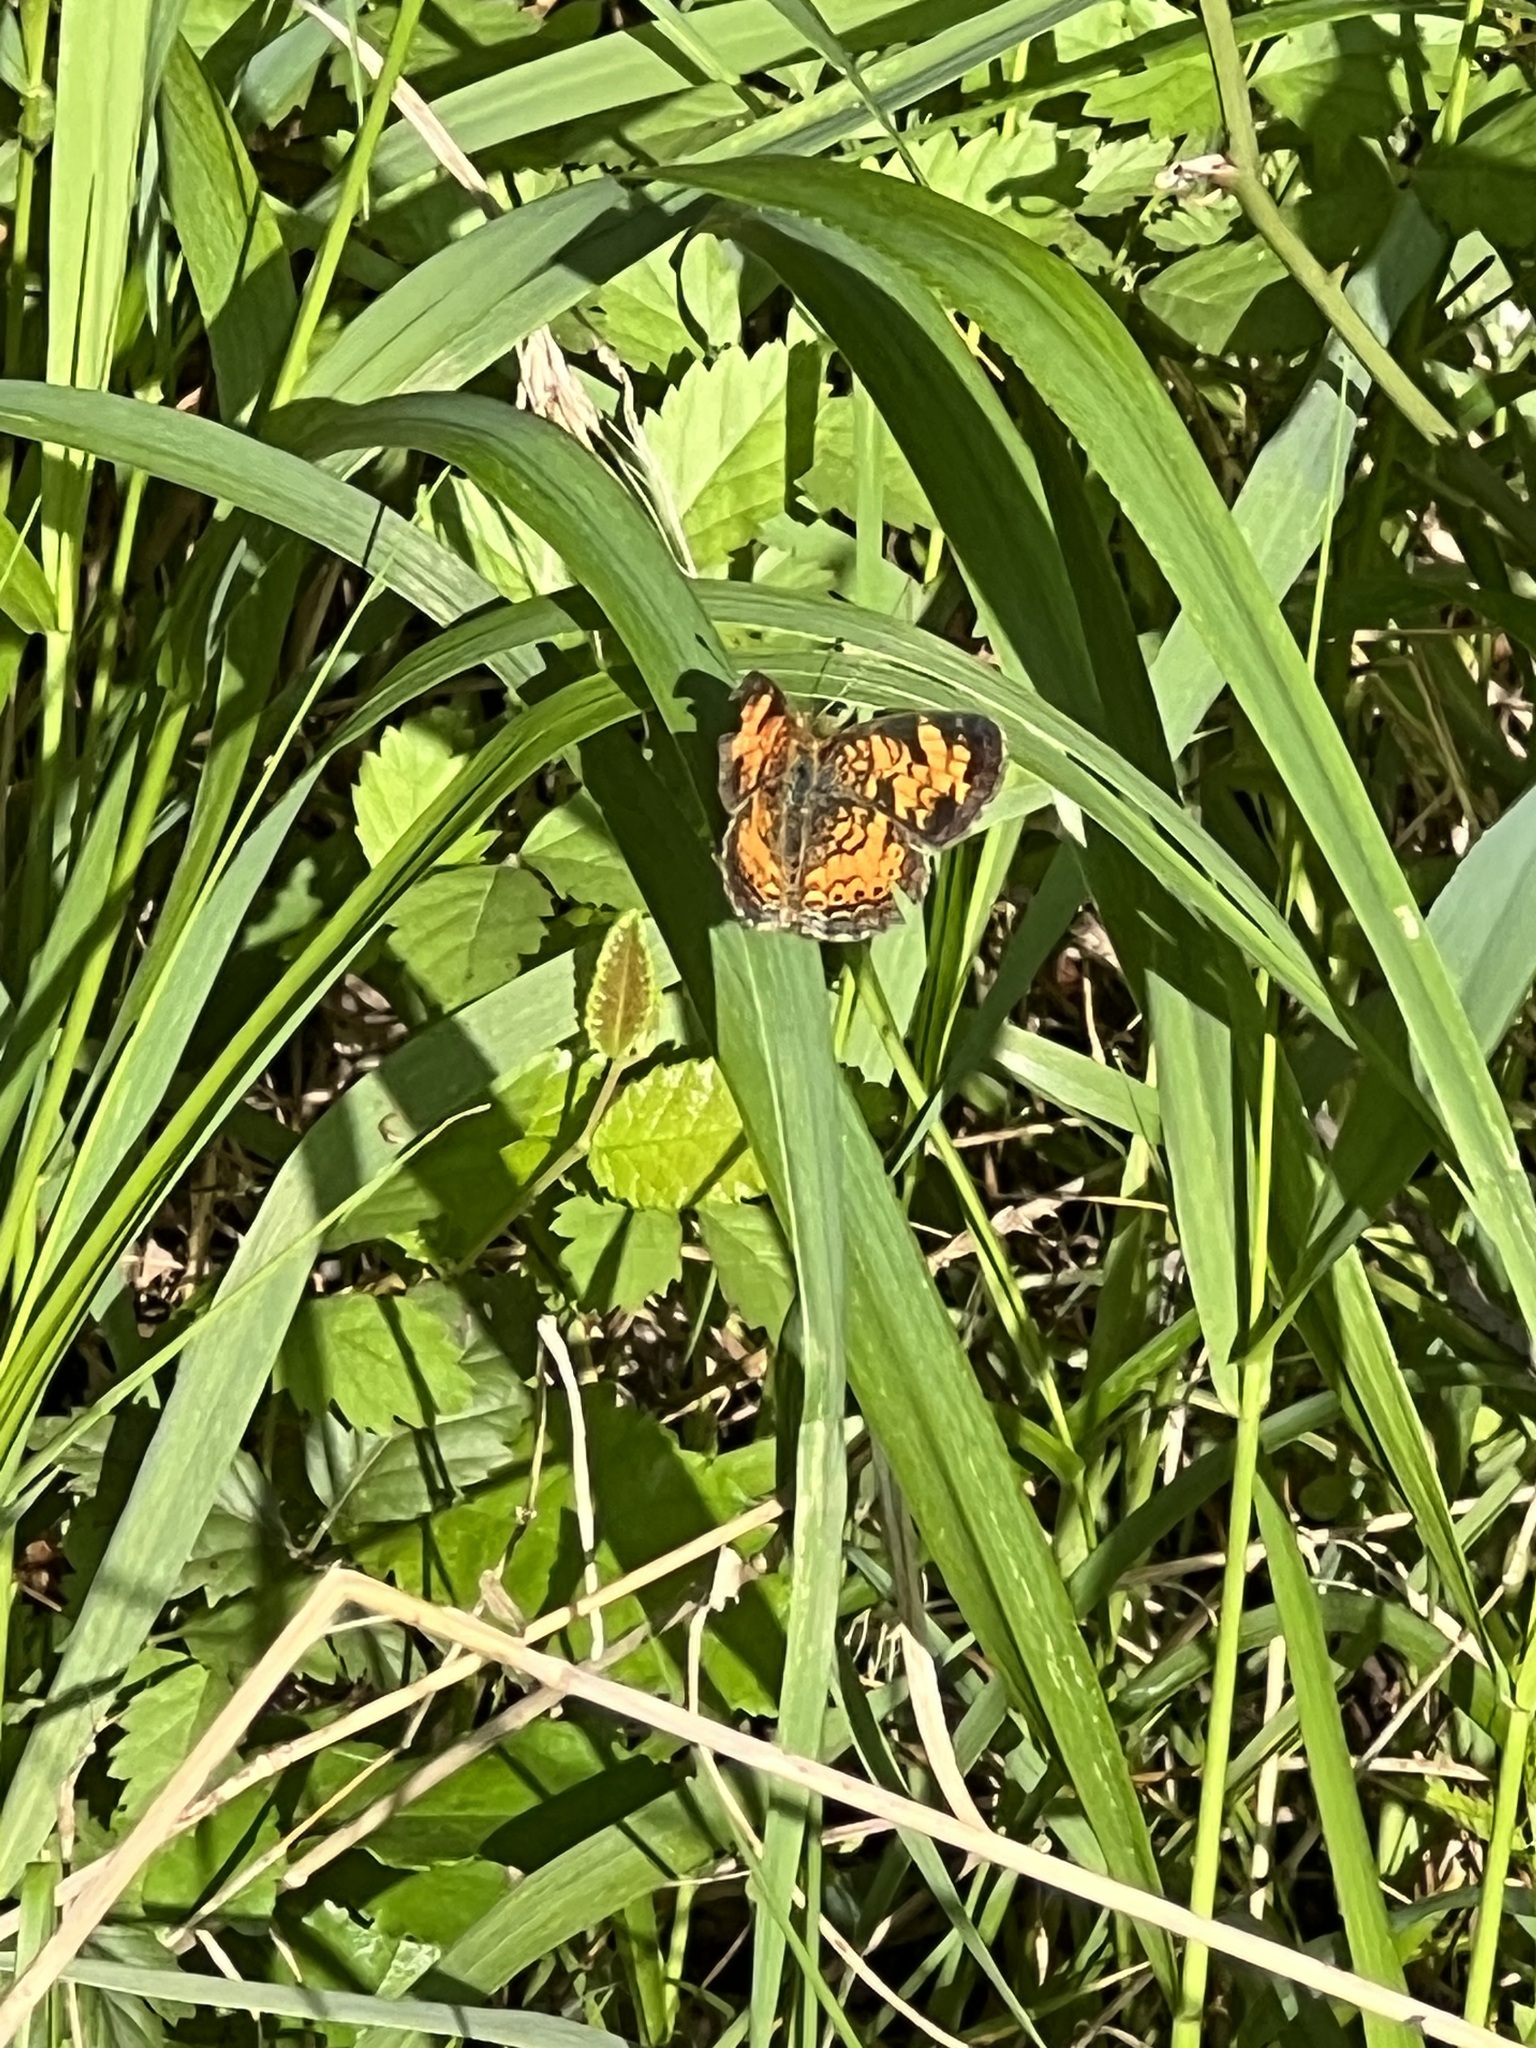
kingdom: Animalia
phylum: Arthropoda
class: Insecta
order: Lepidoptera
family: Nymphalidae
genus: Phyciodes
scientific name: Phyciodes tharos
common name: Pearl crescent
